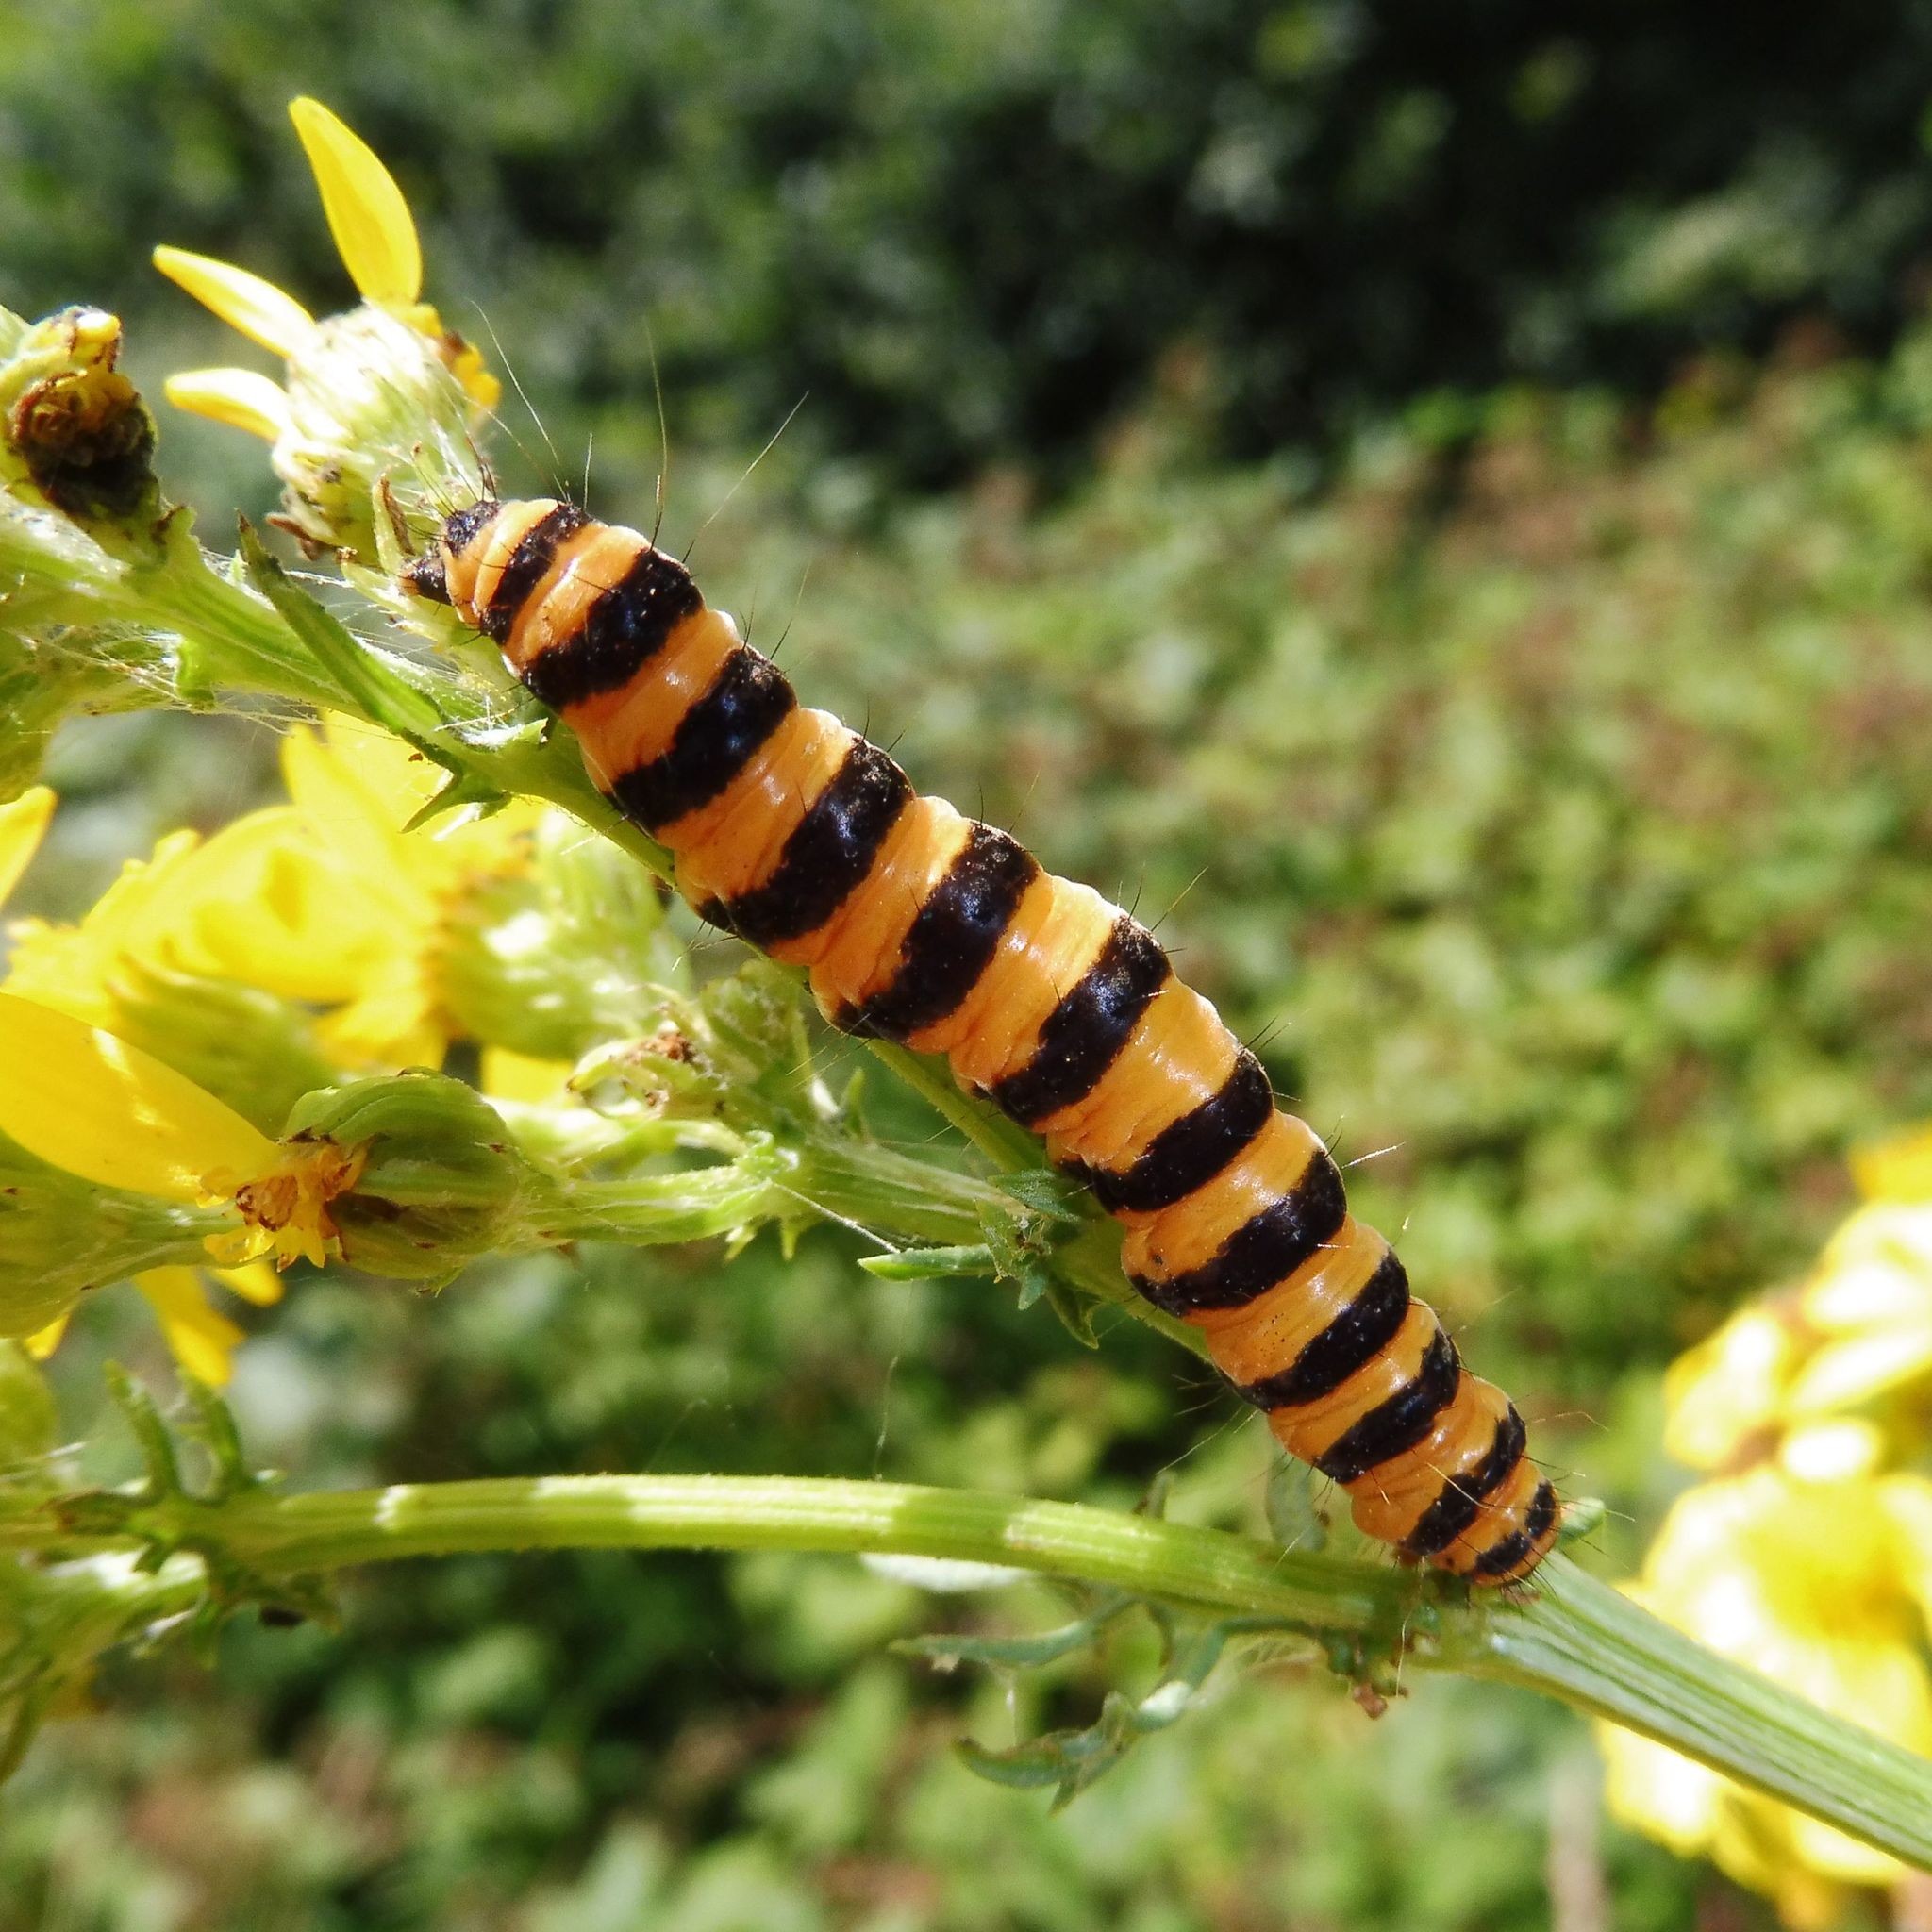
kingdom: Animalia
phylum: Arthropoda
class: Insecta
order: Lepidoptera
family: Erebidae
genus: Tyria
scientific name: Tyria jacobaeae
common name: Cinnabar
